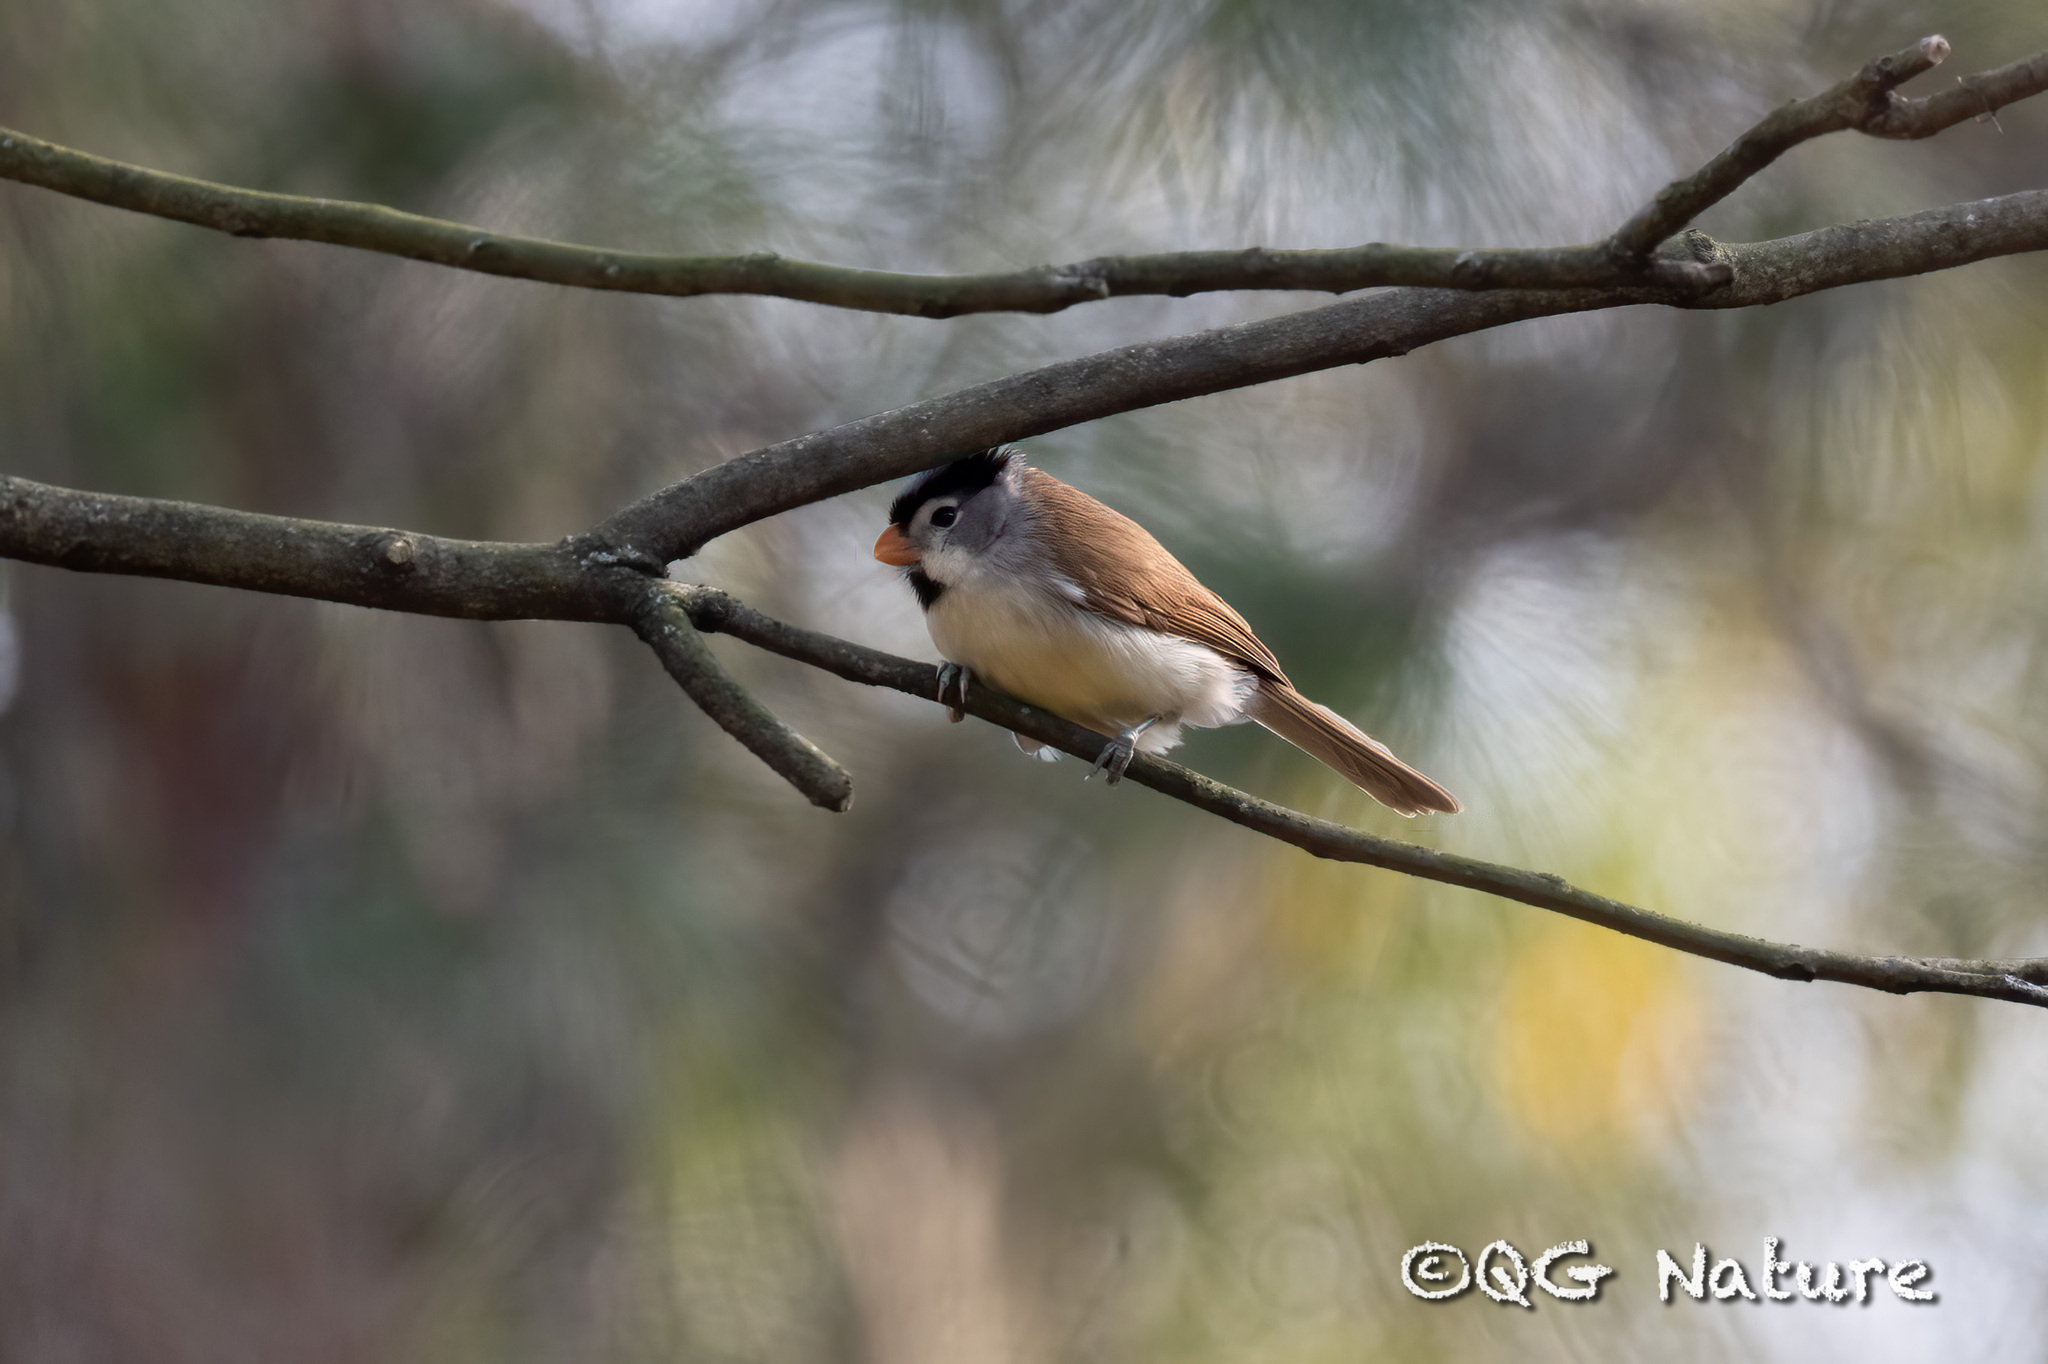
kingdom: Animalia
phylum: Chordata
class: Aves
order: Passeriformes
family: Sylviidae
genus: Psittiparus
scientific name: Psittiparus gularis
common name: Gray-headed parrotbill
